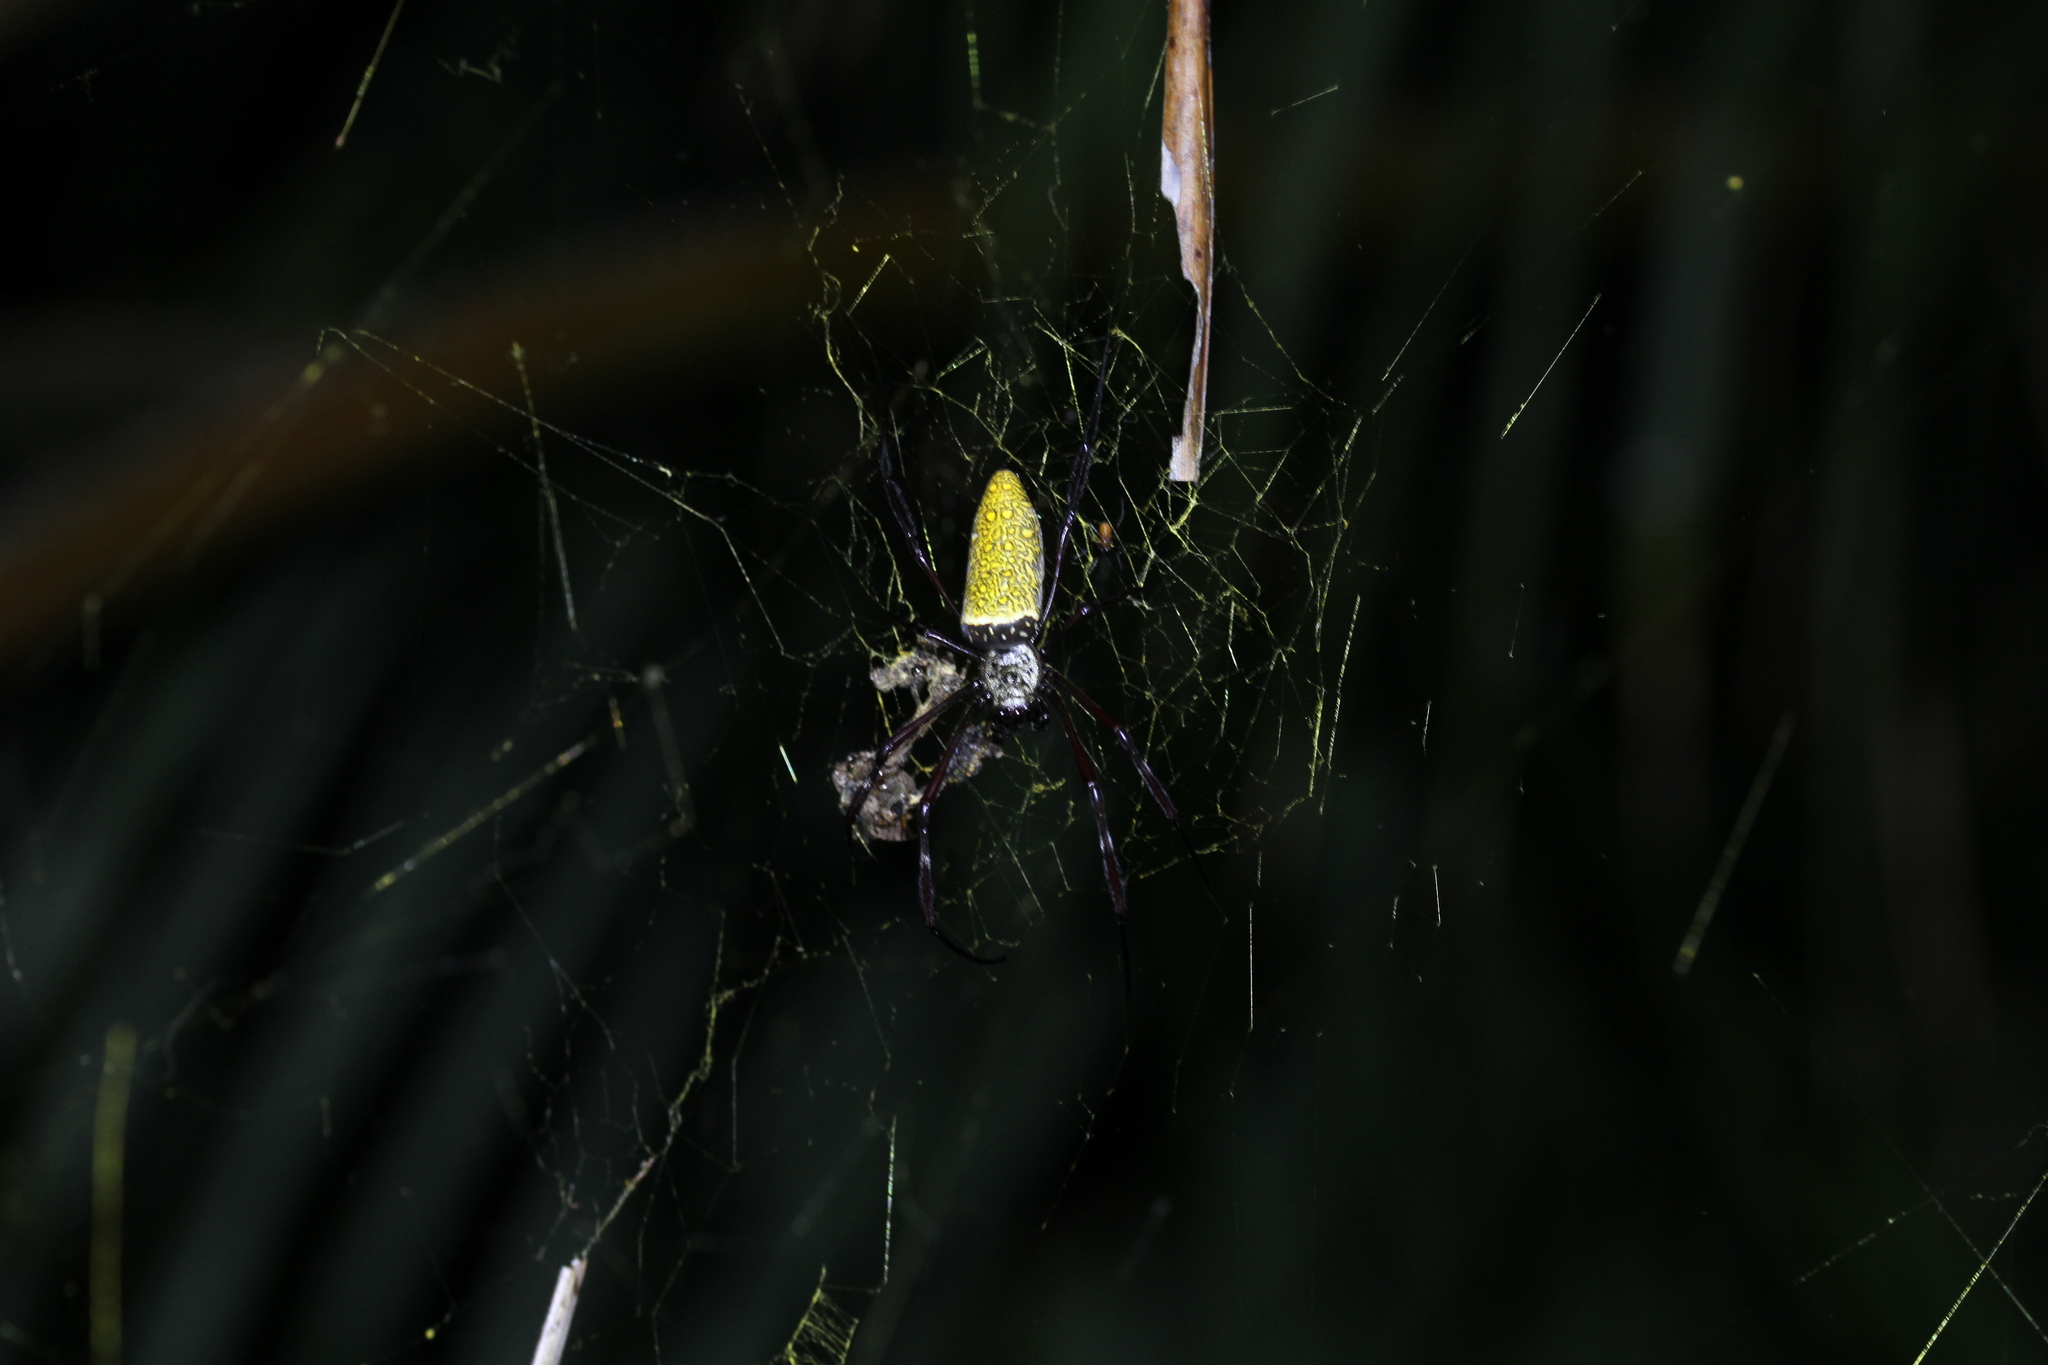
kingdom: Animalia
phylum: Arthropoda
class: Arachnida
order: Araneae
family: Araneidae
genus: Trichonephila
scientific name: Trichonephila antipodiana
